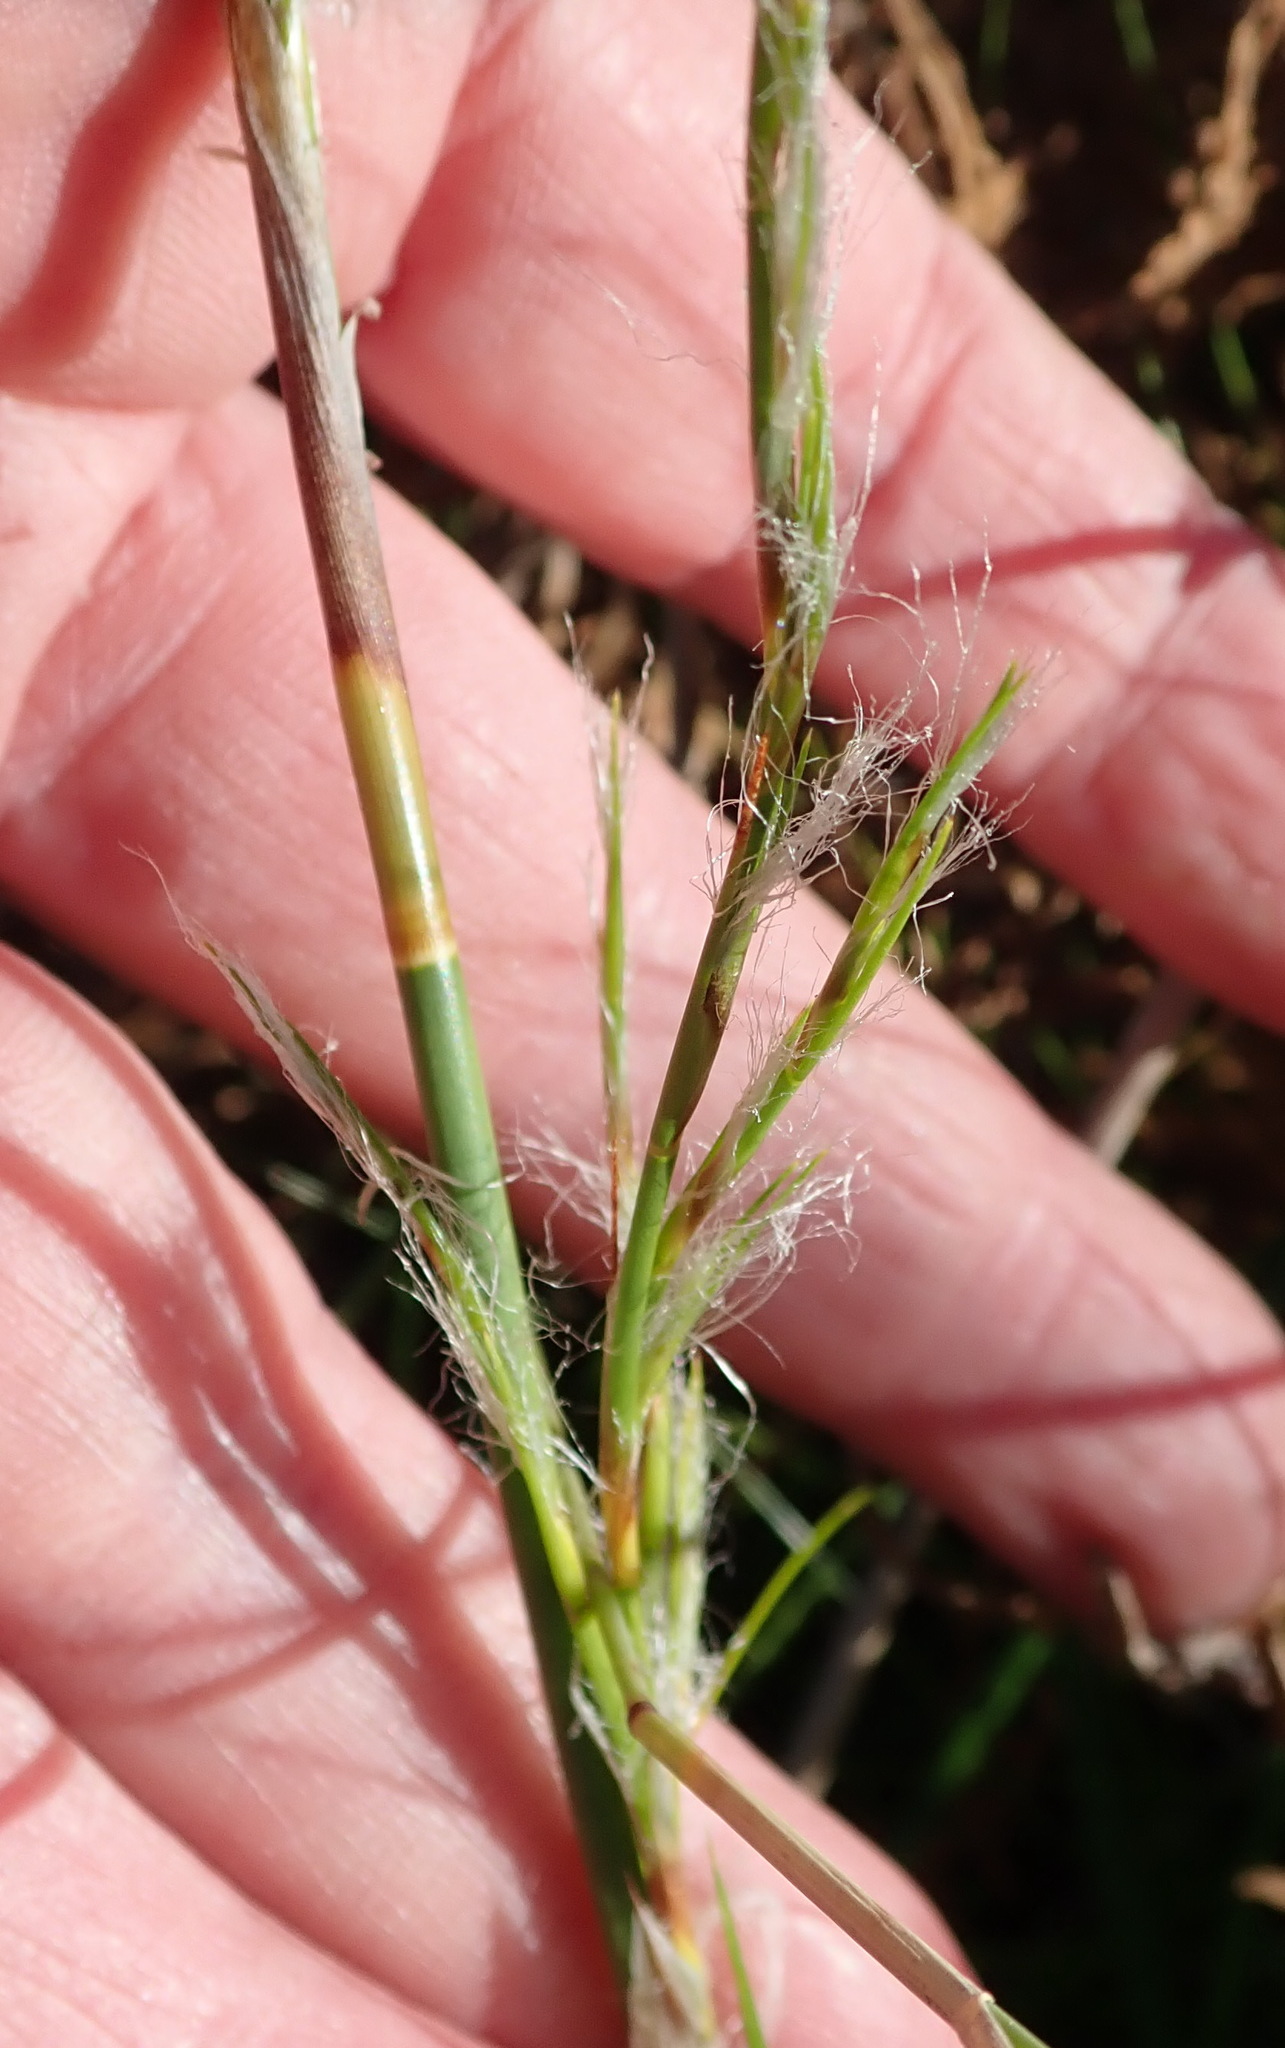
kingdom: Plantae
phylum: Tracheophyta
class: Liliopsida
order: Poales
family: Restionaceae
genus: Thamnochortus
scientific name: Thamnochortus glaber
